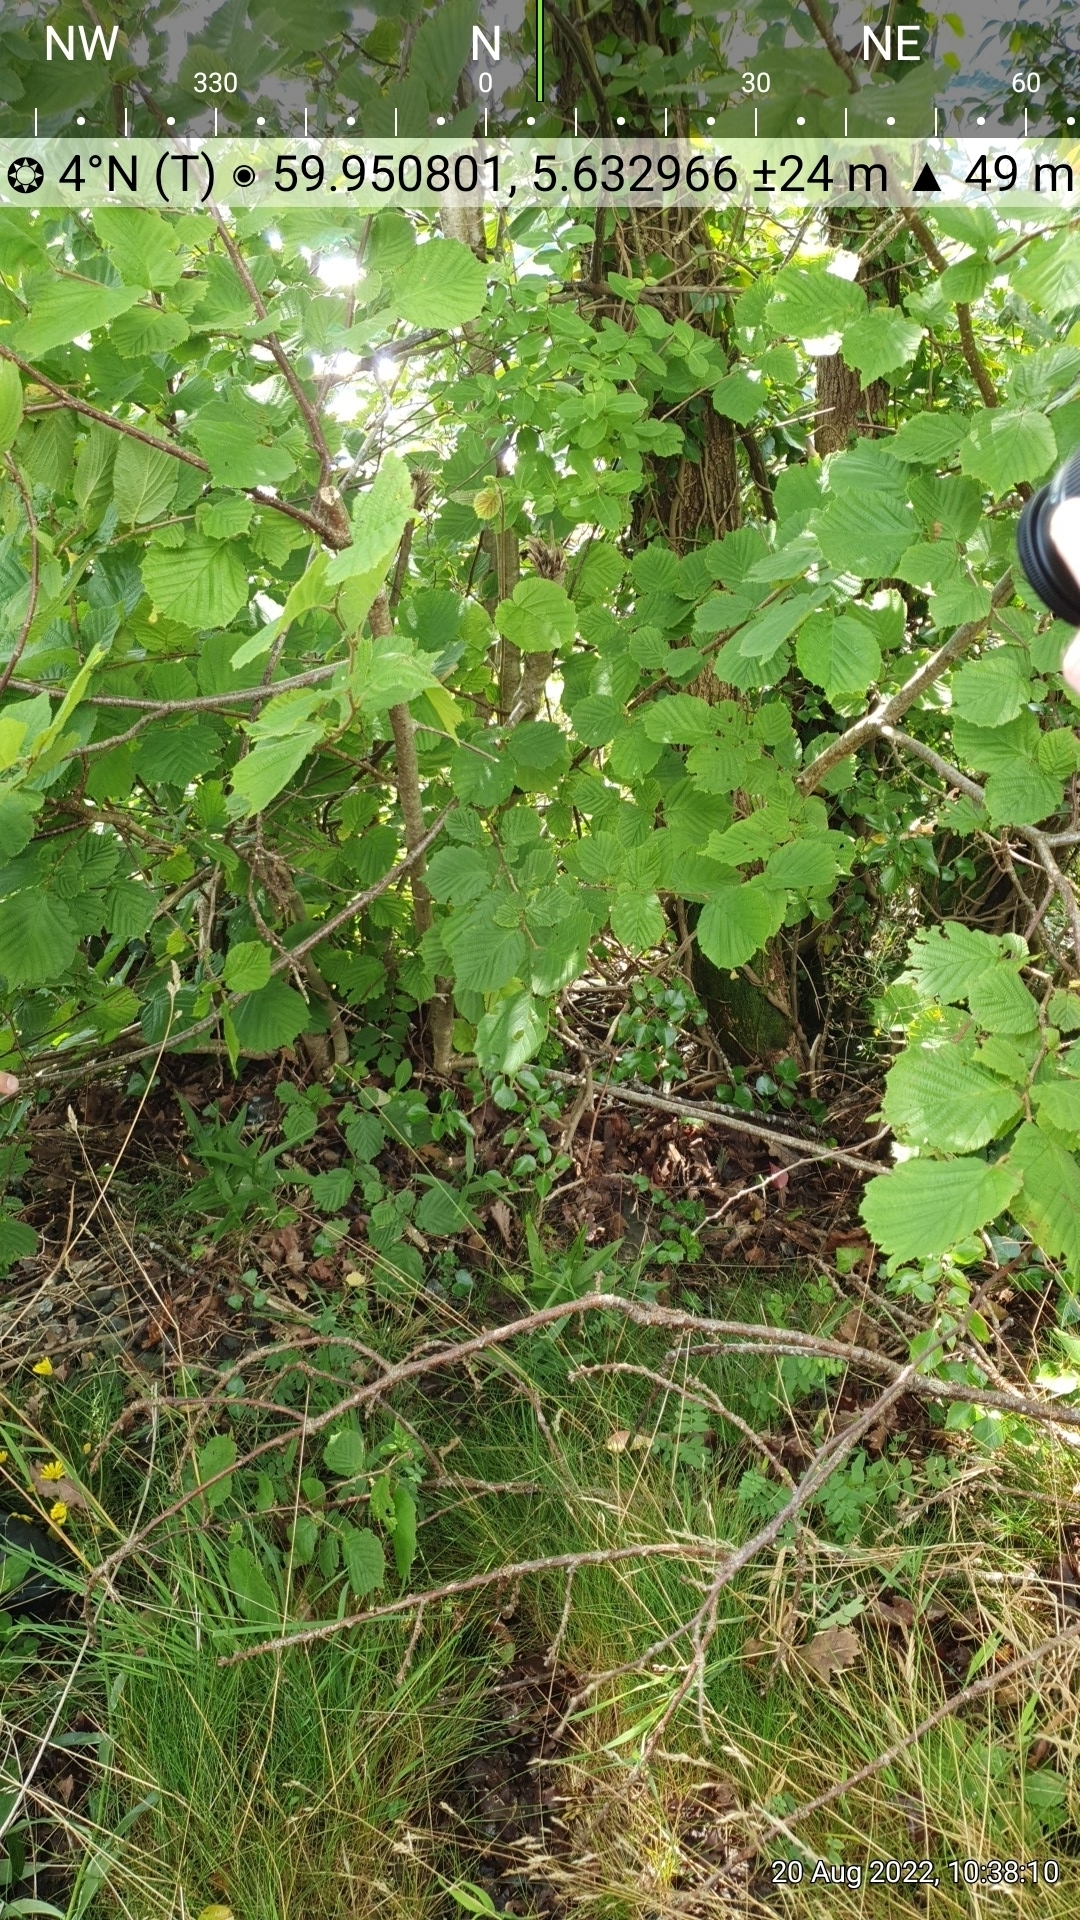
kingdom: Plantae
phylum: Tracheophyta
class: Liliopsida
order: Asparagales
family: Orchidaceae
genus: Cephalanthera
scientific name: Cephalanthera longifolia
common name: Narrow-leaved helleborine
